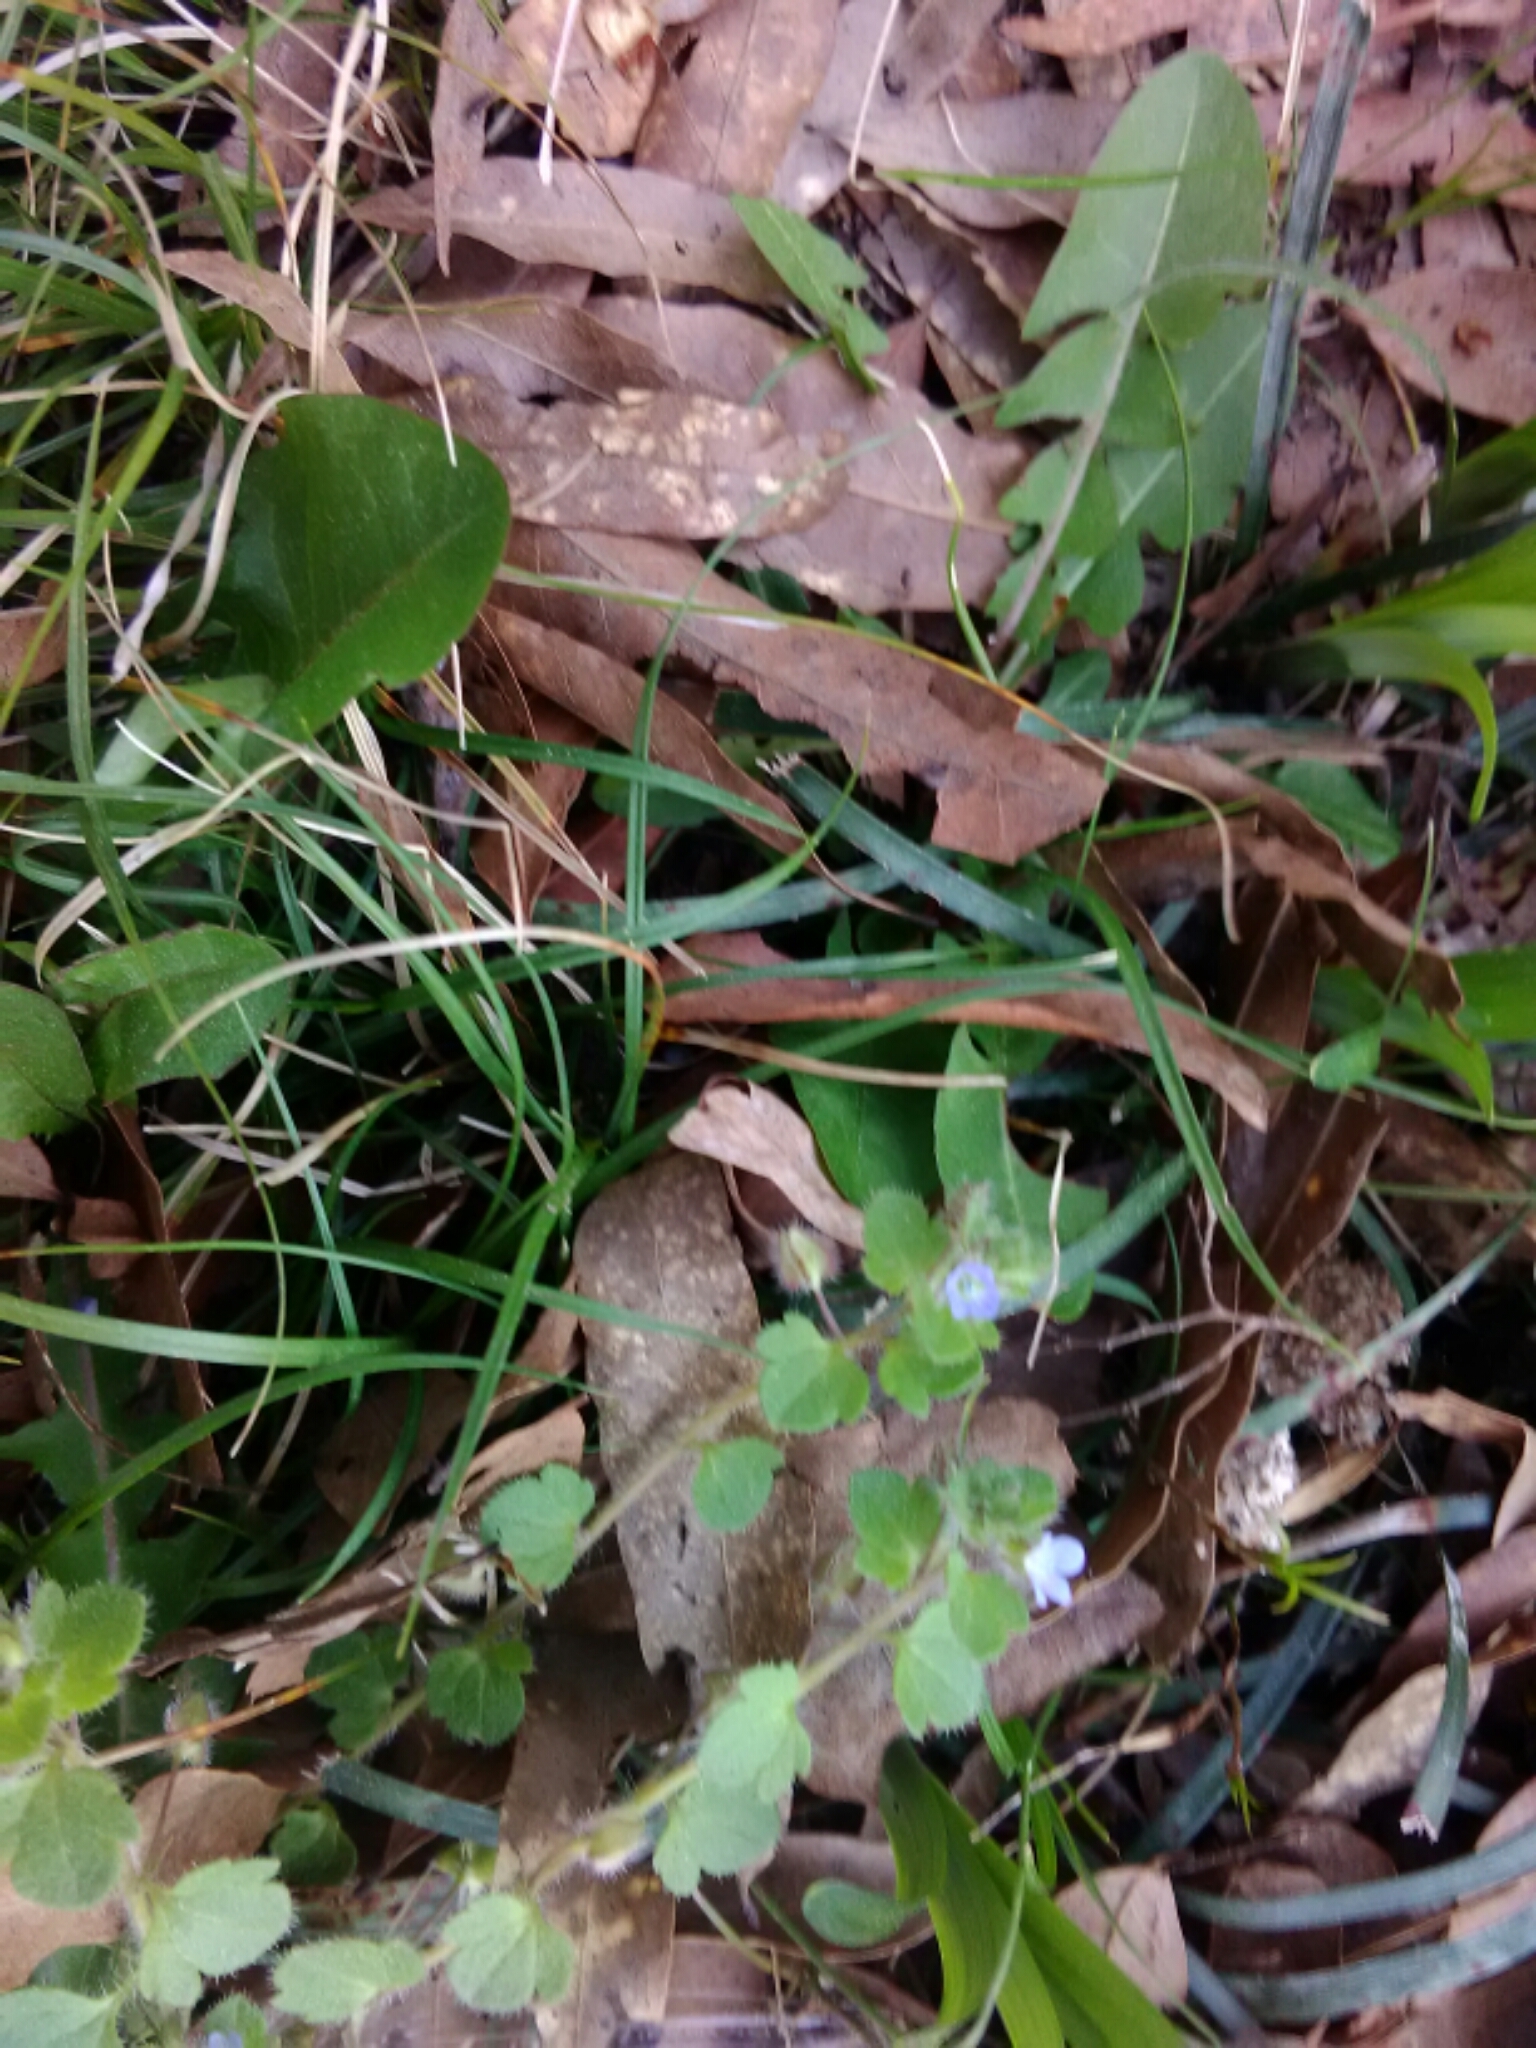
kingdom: Plantae
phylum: Tracheophyta
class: Magnoliopsida
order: Lamiales
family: Plantaginaceae
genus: Veronica
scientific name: Veronica hederifolia
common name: Ivy-leaved speedwell
